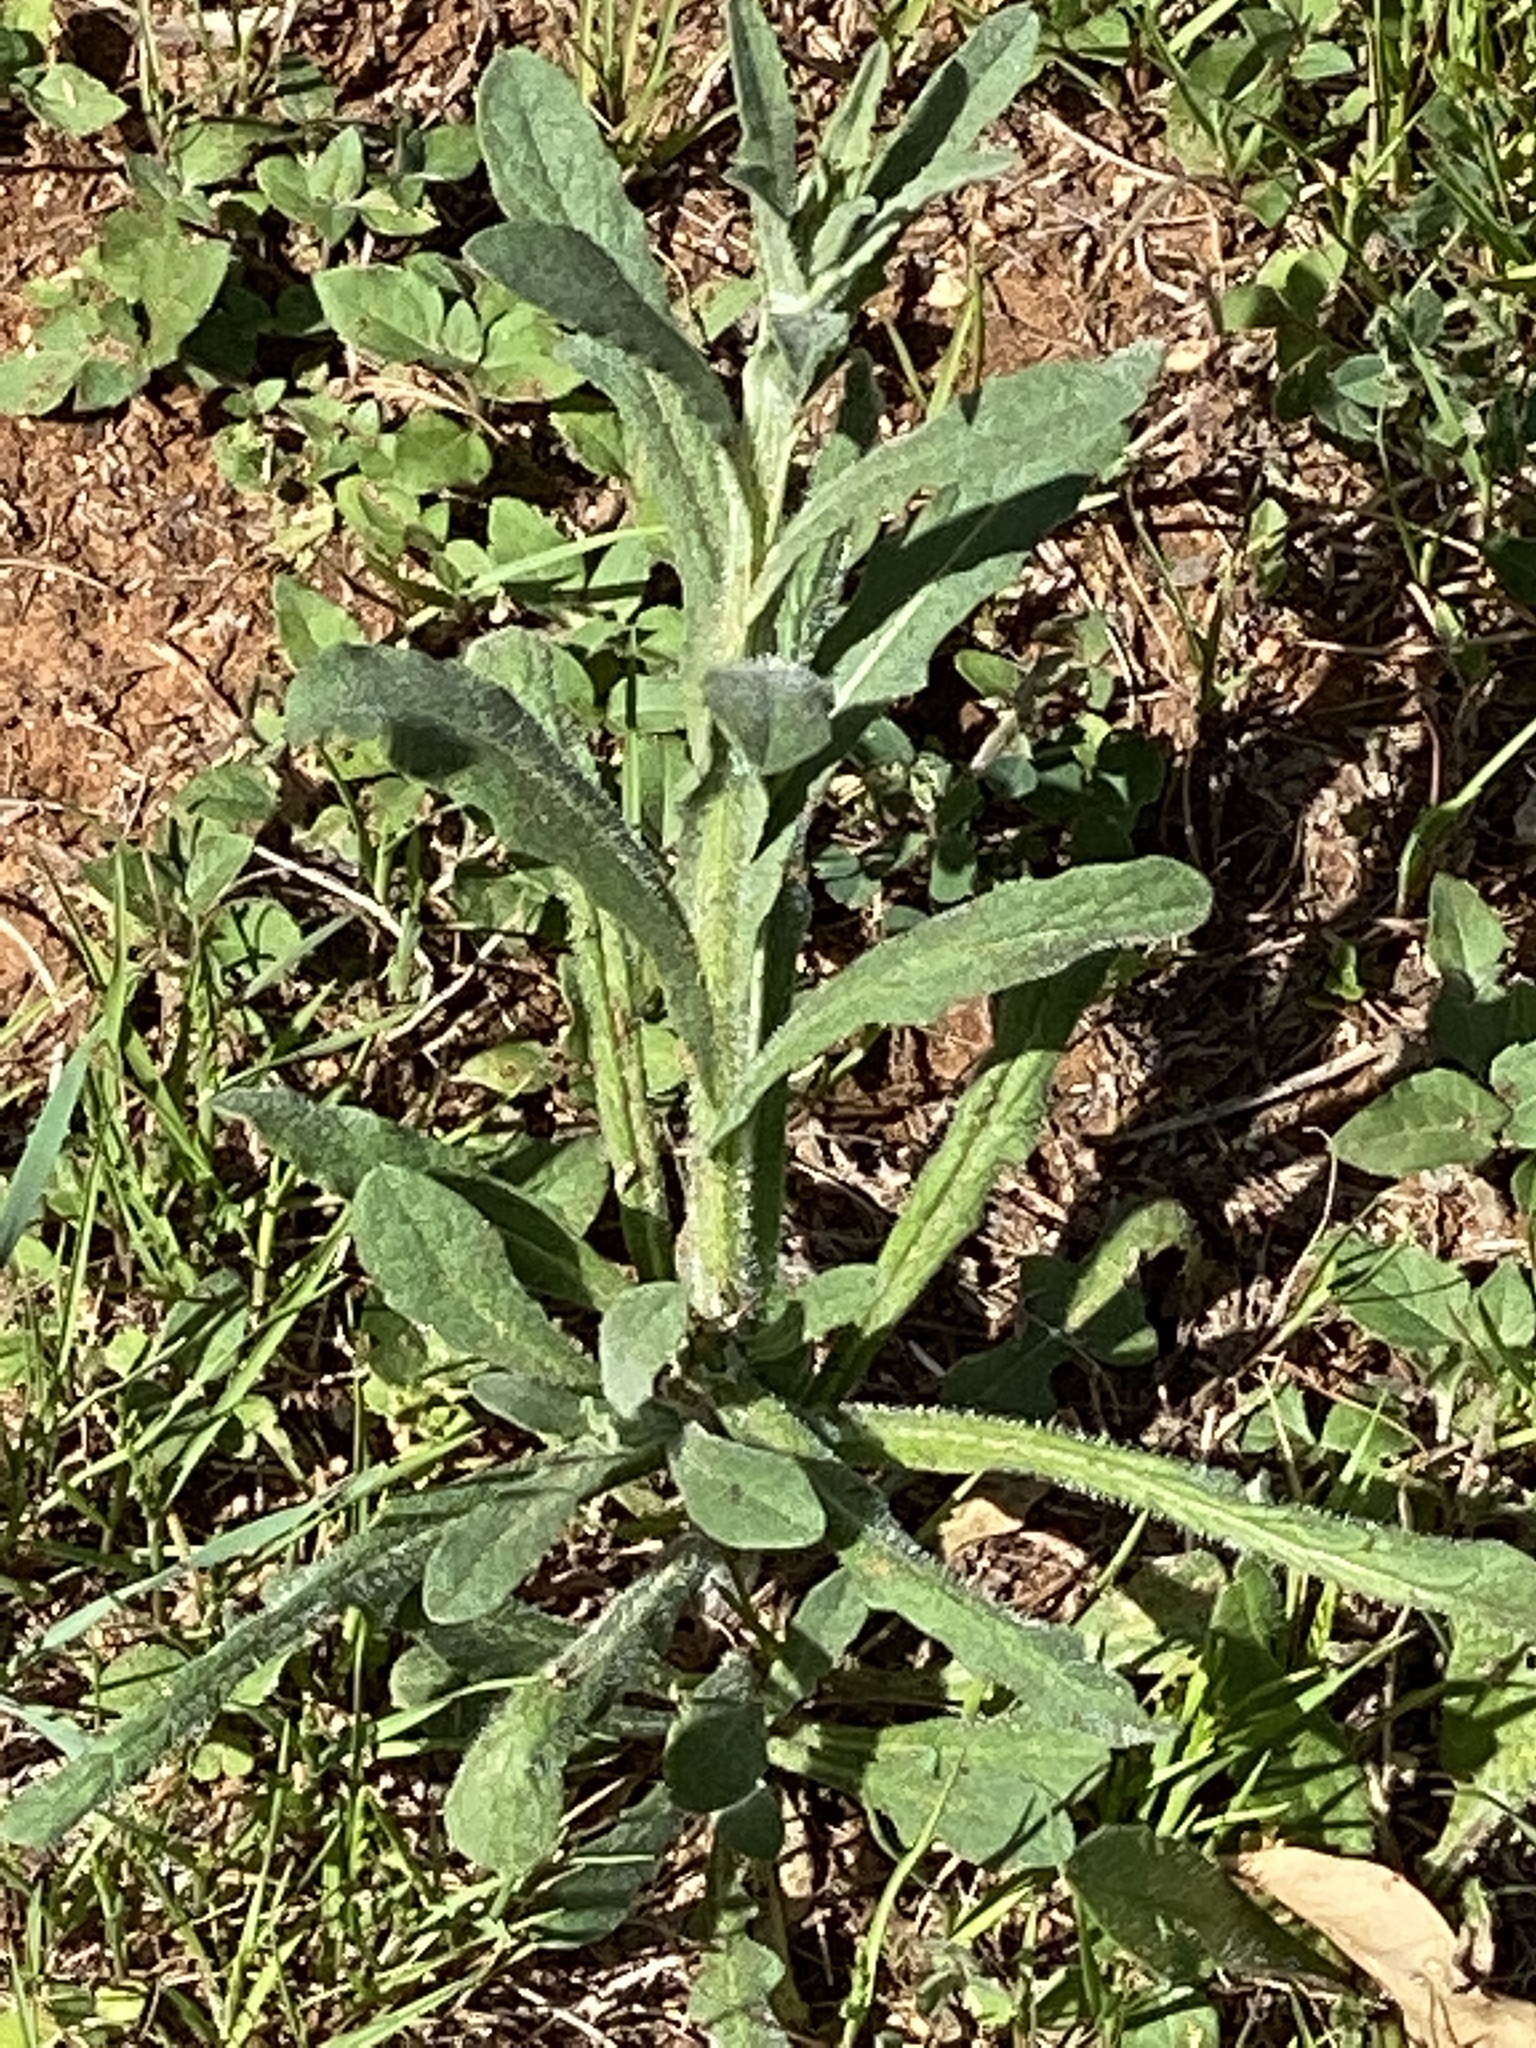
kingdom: Plantae
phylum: Tracheophyta
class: Magnoliopsida
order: Asterales
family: Asteraceae
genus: Centaurea
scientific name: Centaurea melitensis
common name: Maltese star-thistle
